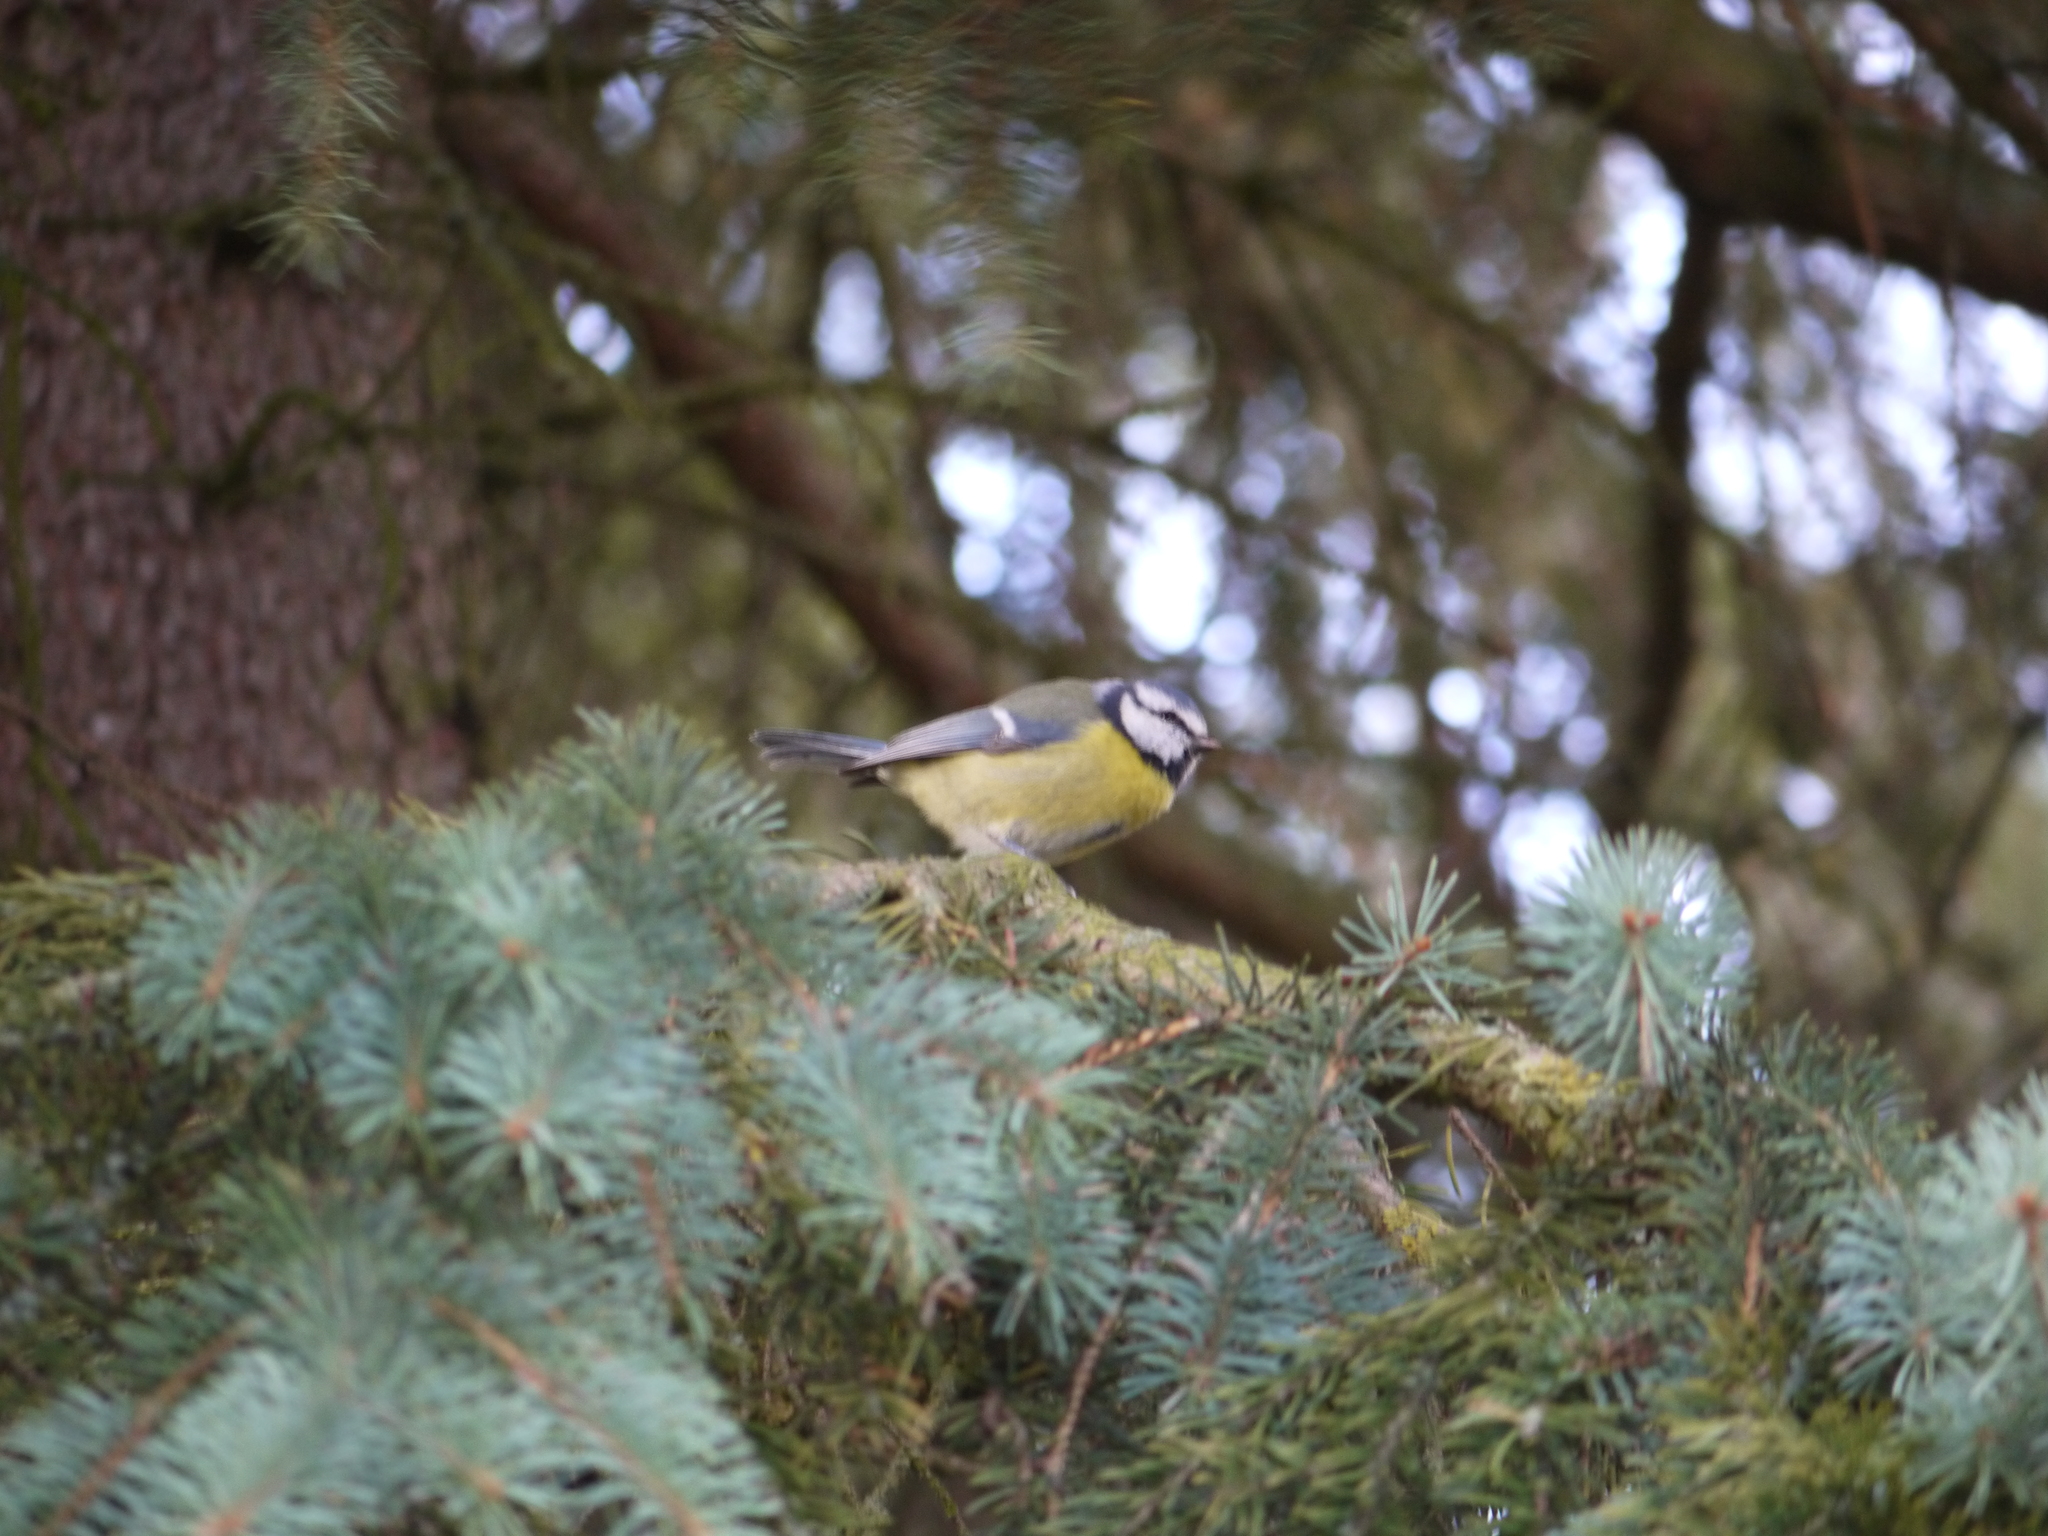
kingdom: Animalia
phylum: Chordata
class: Aves
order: Passeriformes
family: Paridae
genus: Cyanistes
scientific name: Cyanistes caeruleus
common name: Eurasian blue tit
